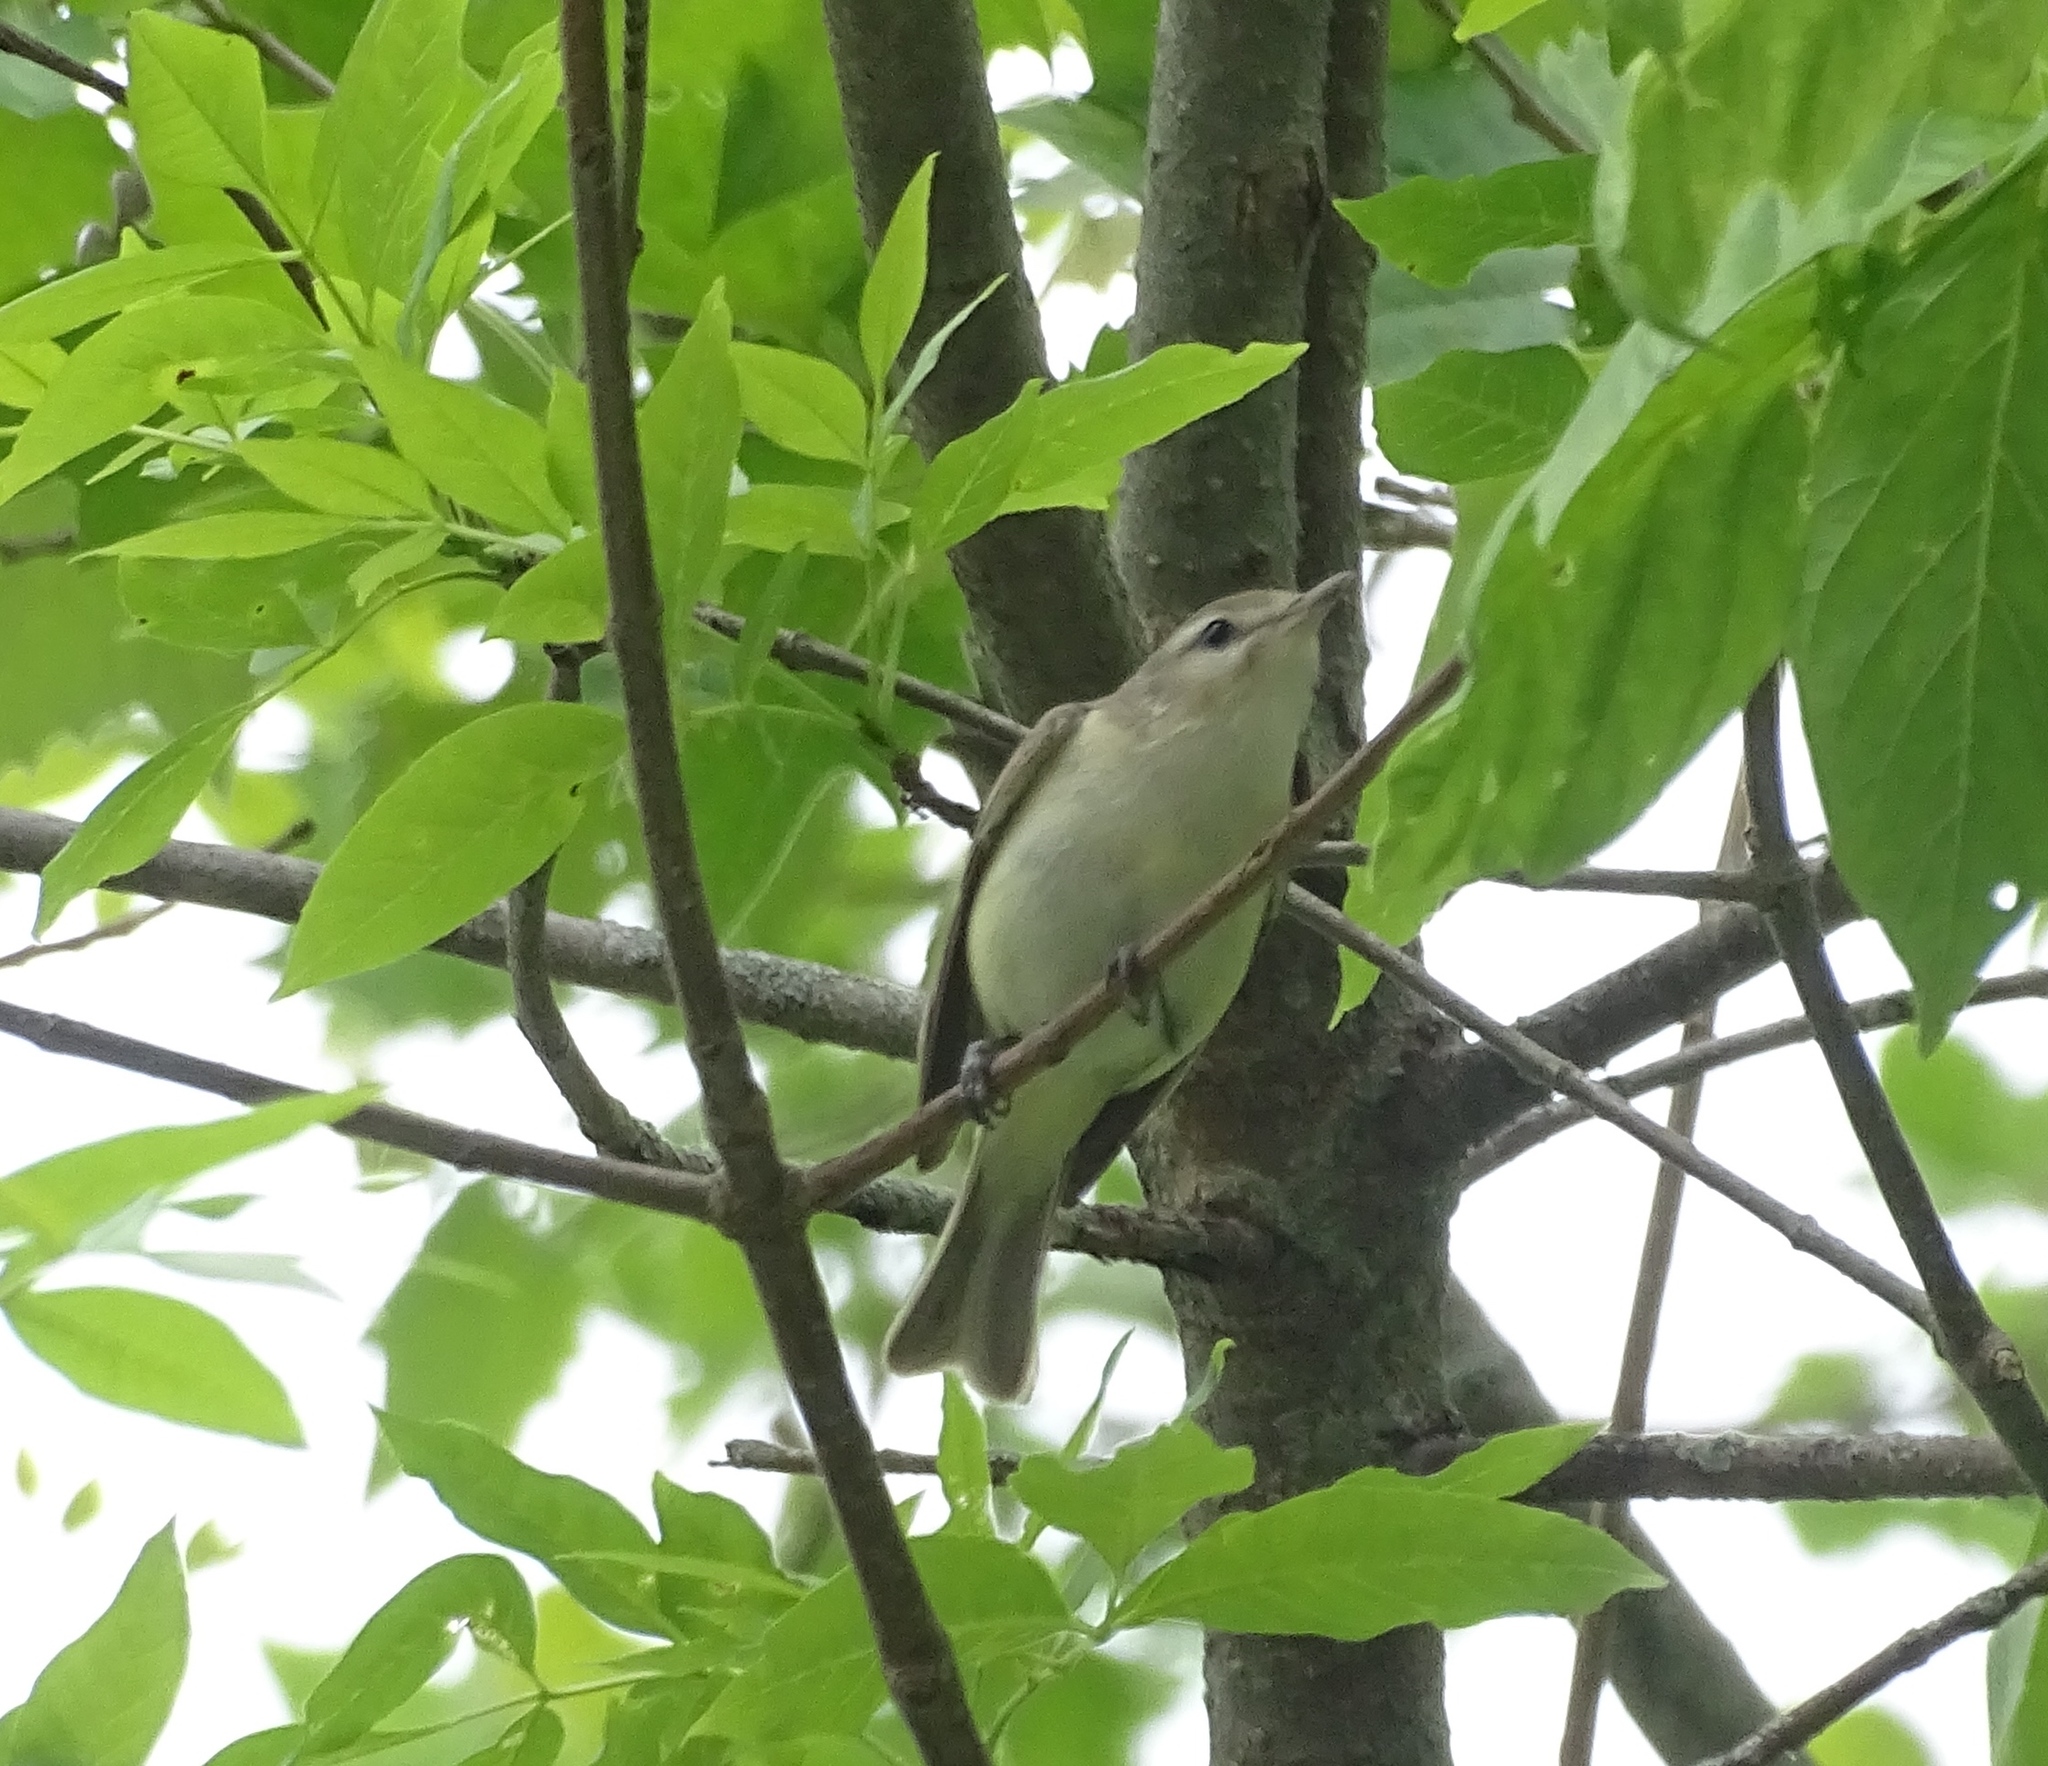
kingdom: Animalia
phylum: Chordata
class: Aves
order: Passeriformes
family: Vireonidae
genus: Vireo
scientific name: Vireo gilvus
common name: Warbling vireo
